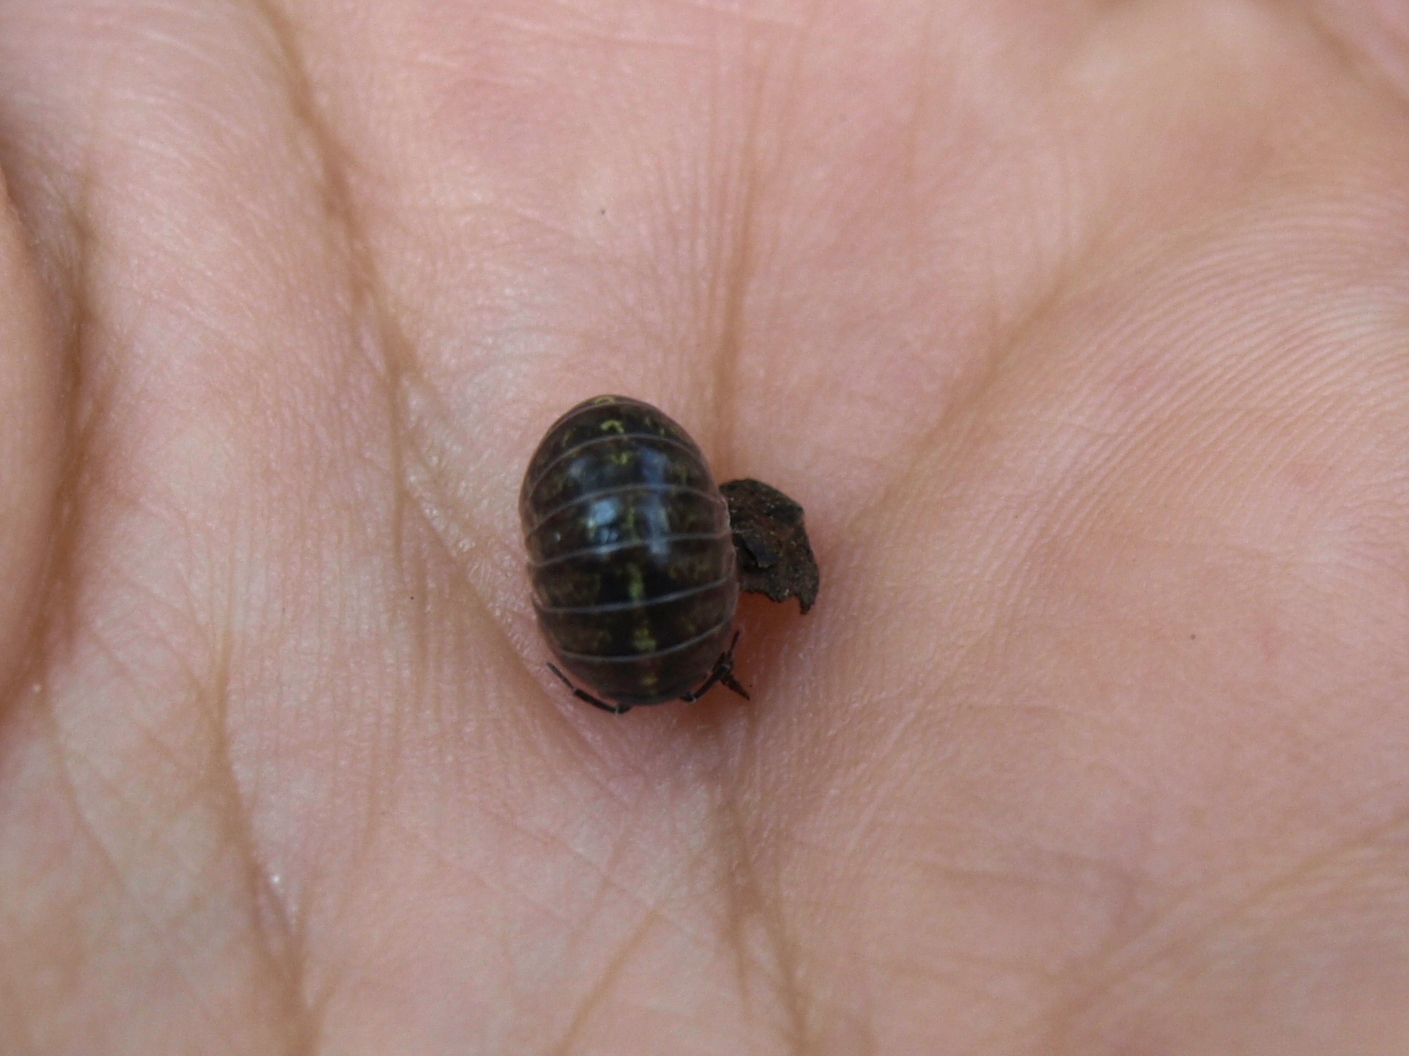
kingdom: Animalia
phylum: Arthropoda
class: Malacostraca
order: Isopoda
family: Armadillidiidae
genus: Armadillidium
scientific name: Armadillidium vulgare
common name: Common pill woodlouse
